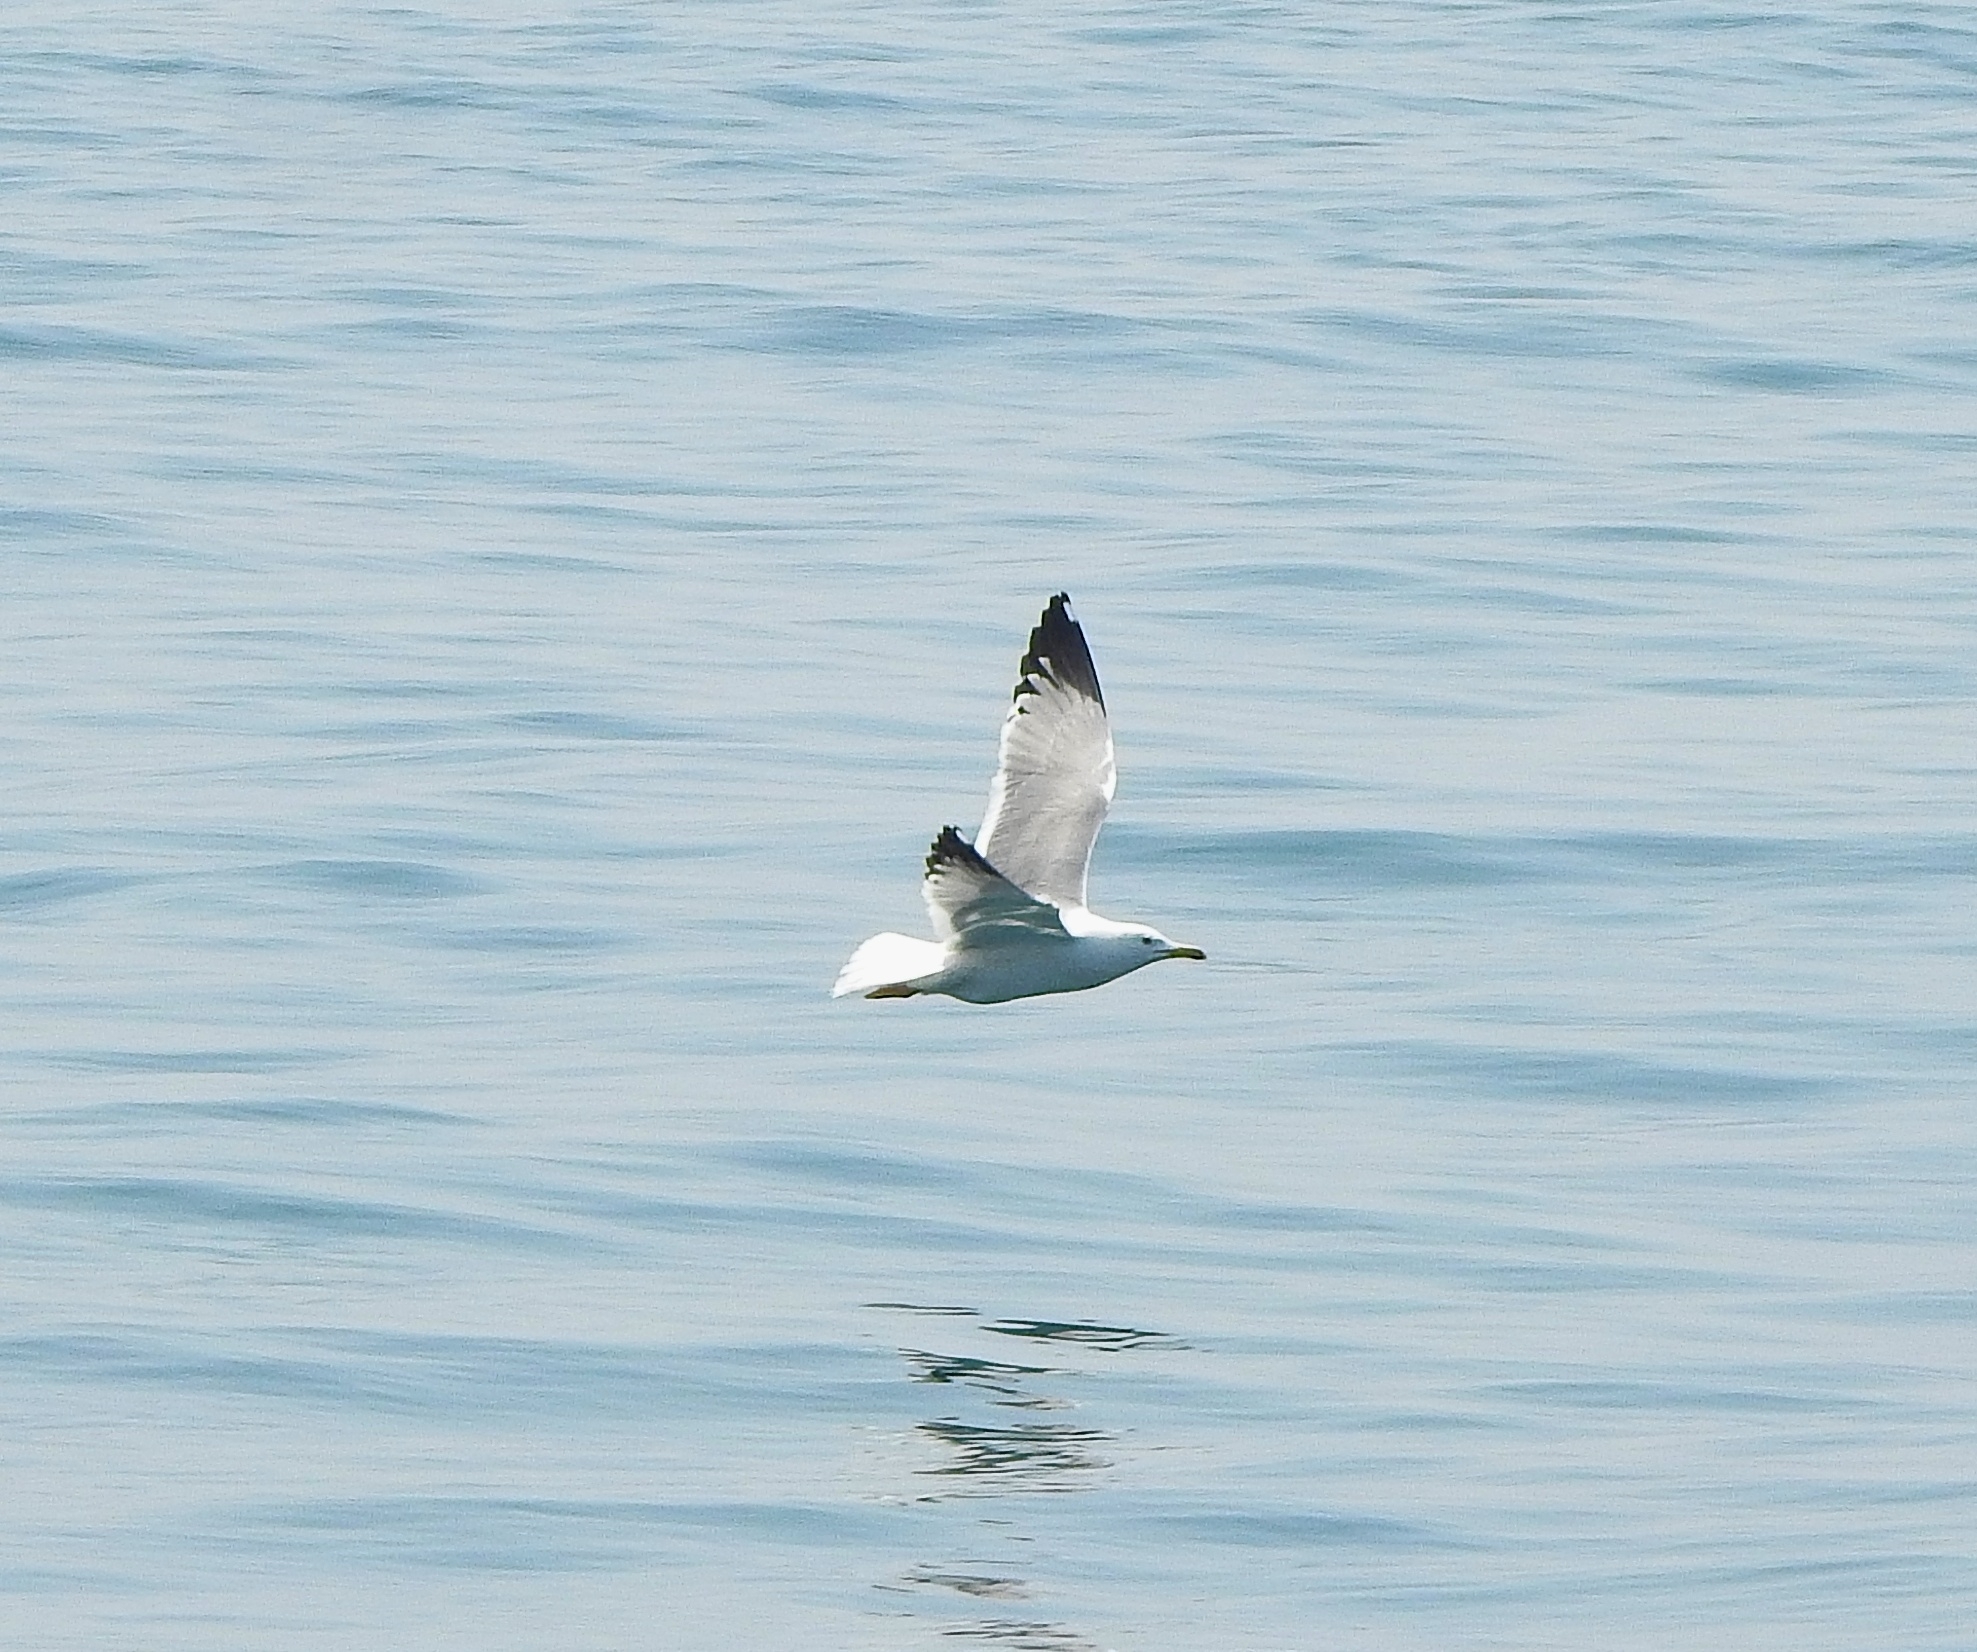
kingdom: Animalia
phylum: Chordata
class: Aves
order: Charadriiformes
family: Laridae
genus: Larus
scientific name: Larus fuscus
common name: Lesser black-backed gull
